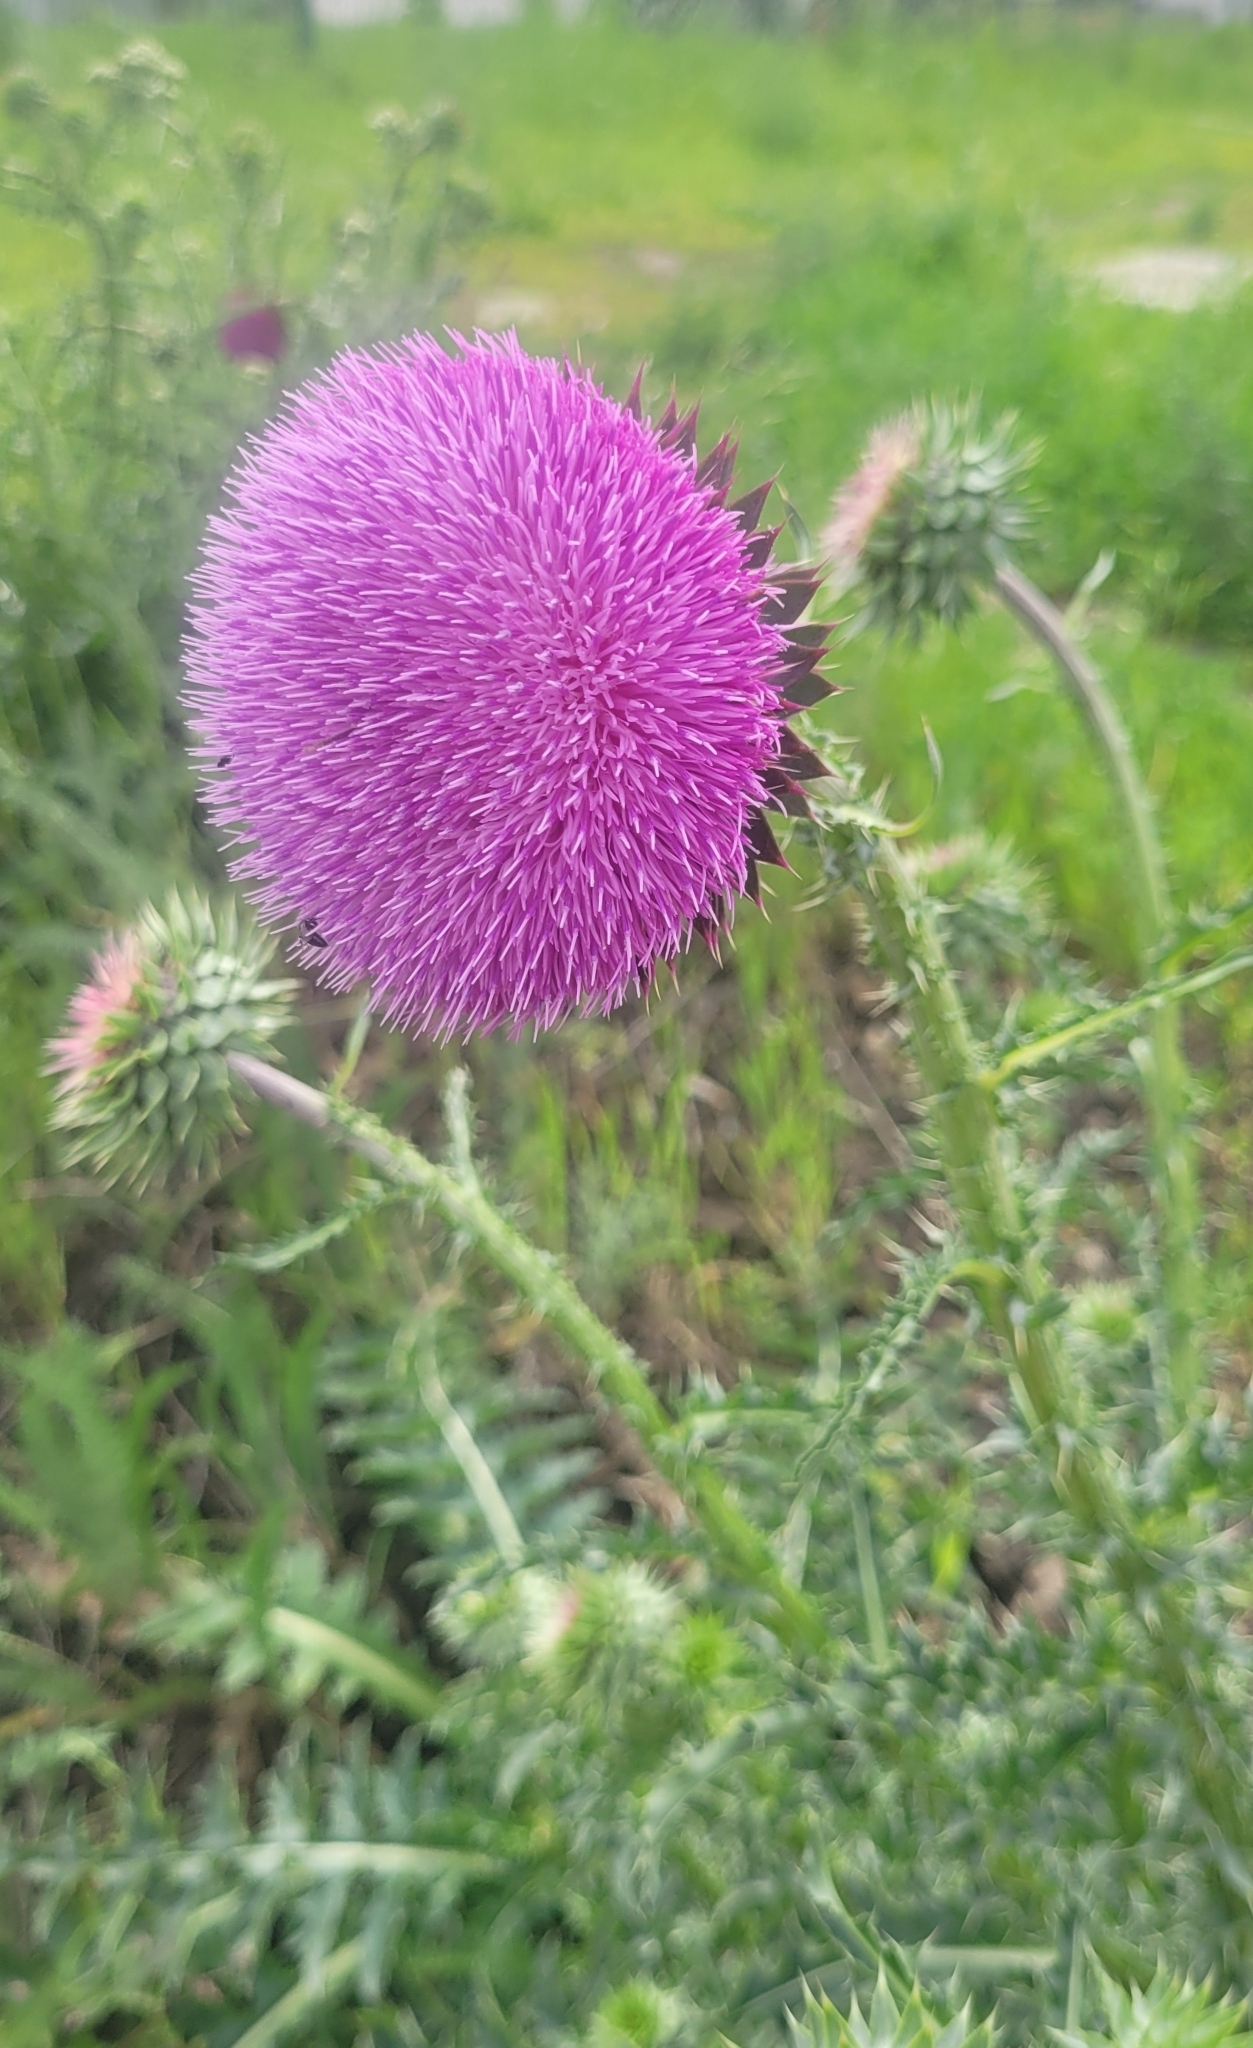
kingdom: Plantae
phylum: Tracheophyta
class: Magnoliopsida
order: Asterales
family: Asteraceae
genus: Carduus
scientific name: Carduus nutans
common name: Musk thistle
